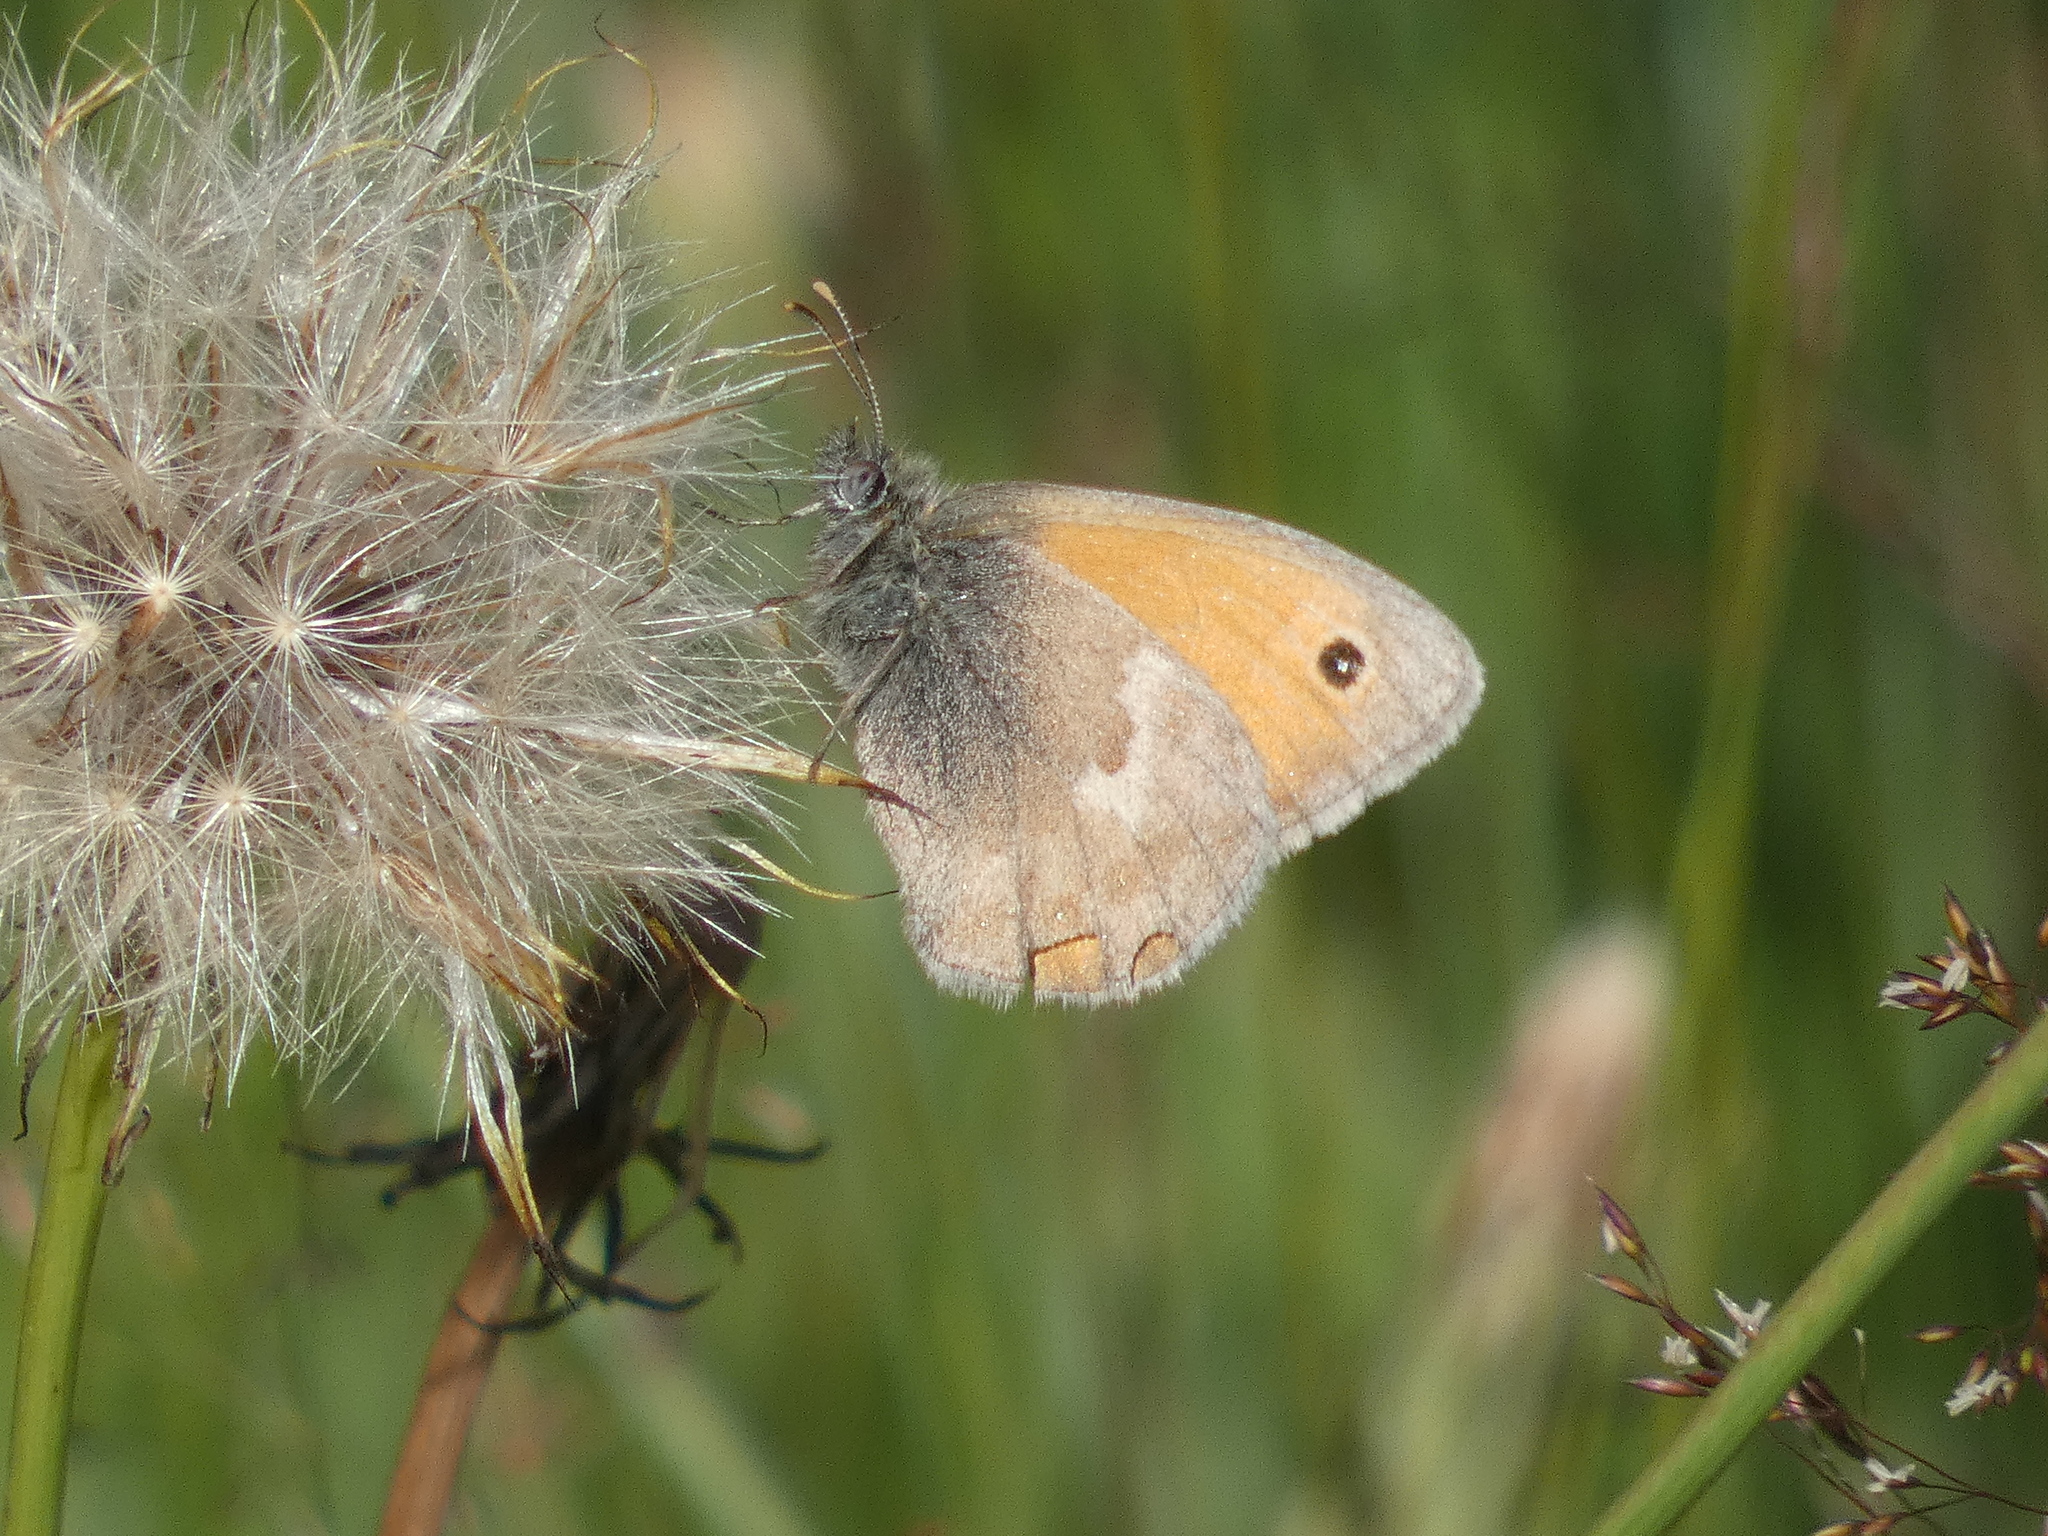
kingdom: Animalia
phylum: Arthropoda
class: Insecta
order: Lepidoptera
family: Nymphalidae
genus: Coenonympha
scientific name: Coenonympha pamphilus
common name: Small heath
